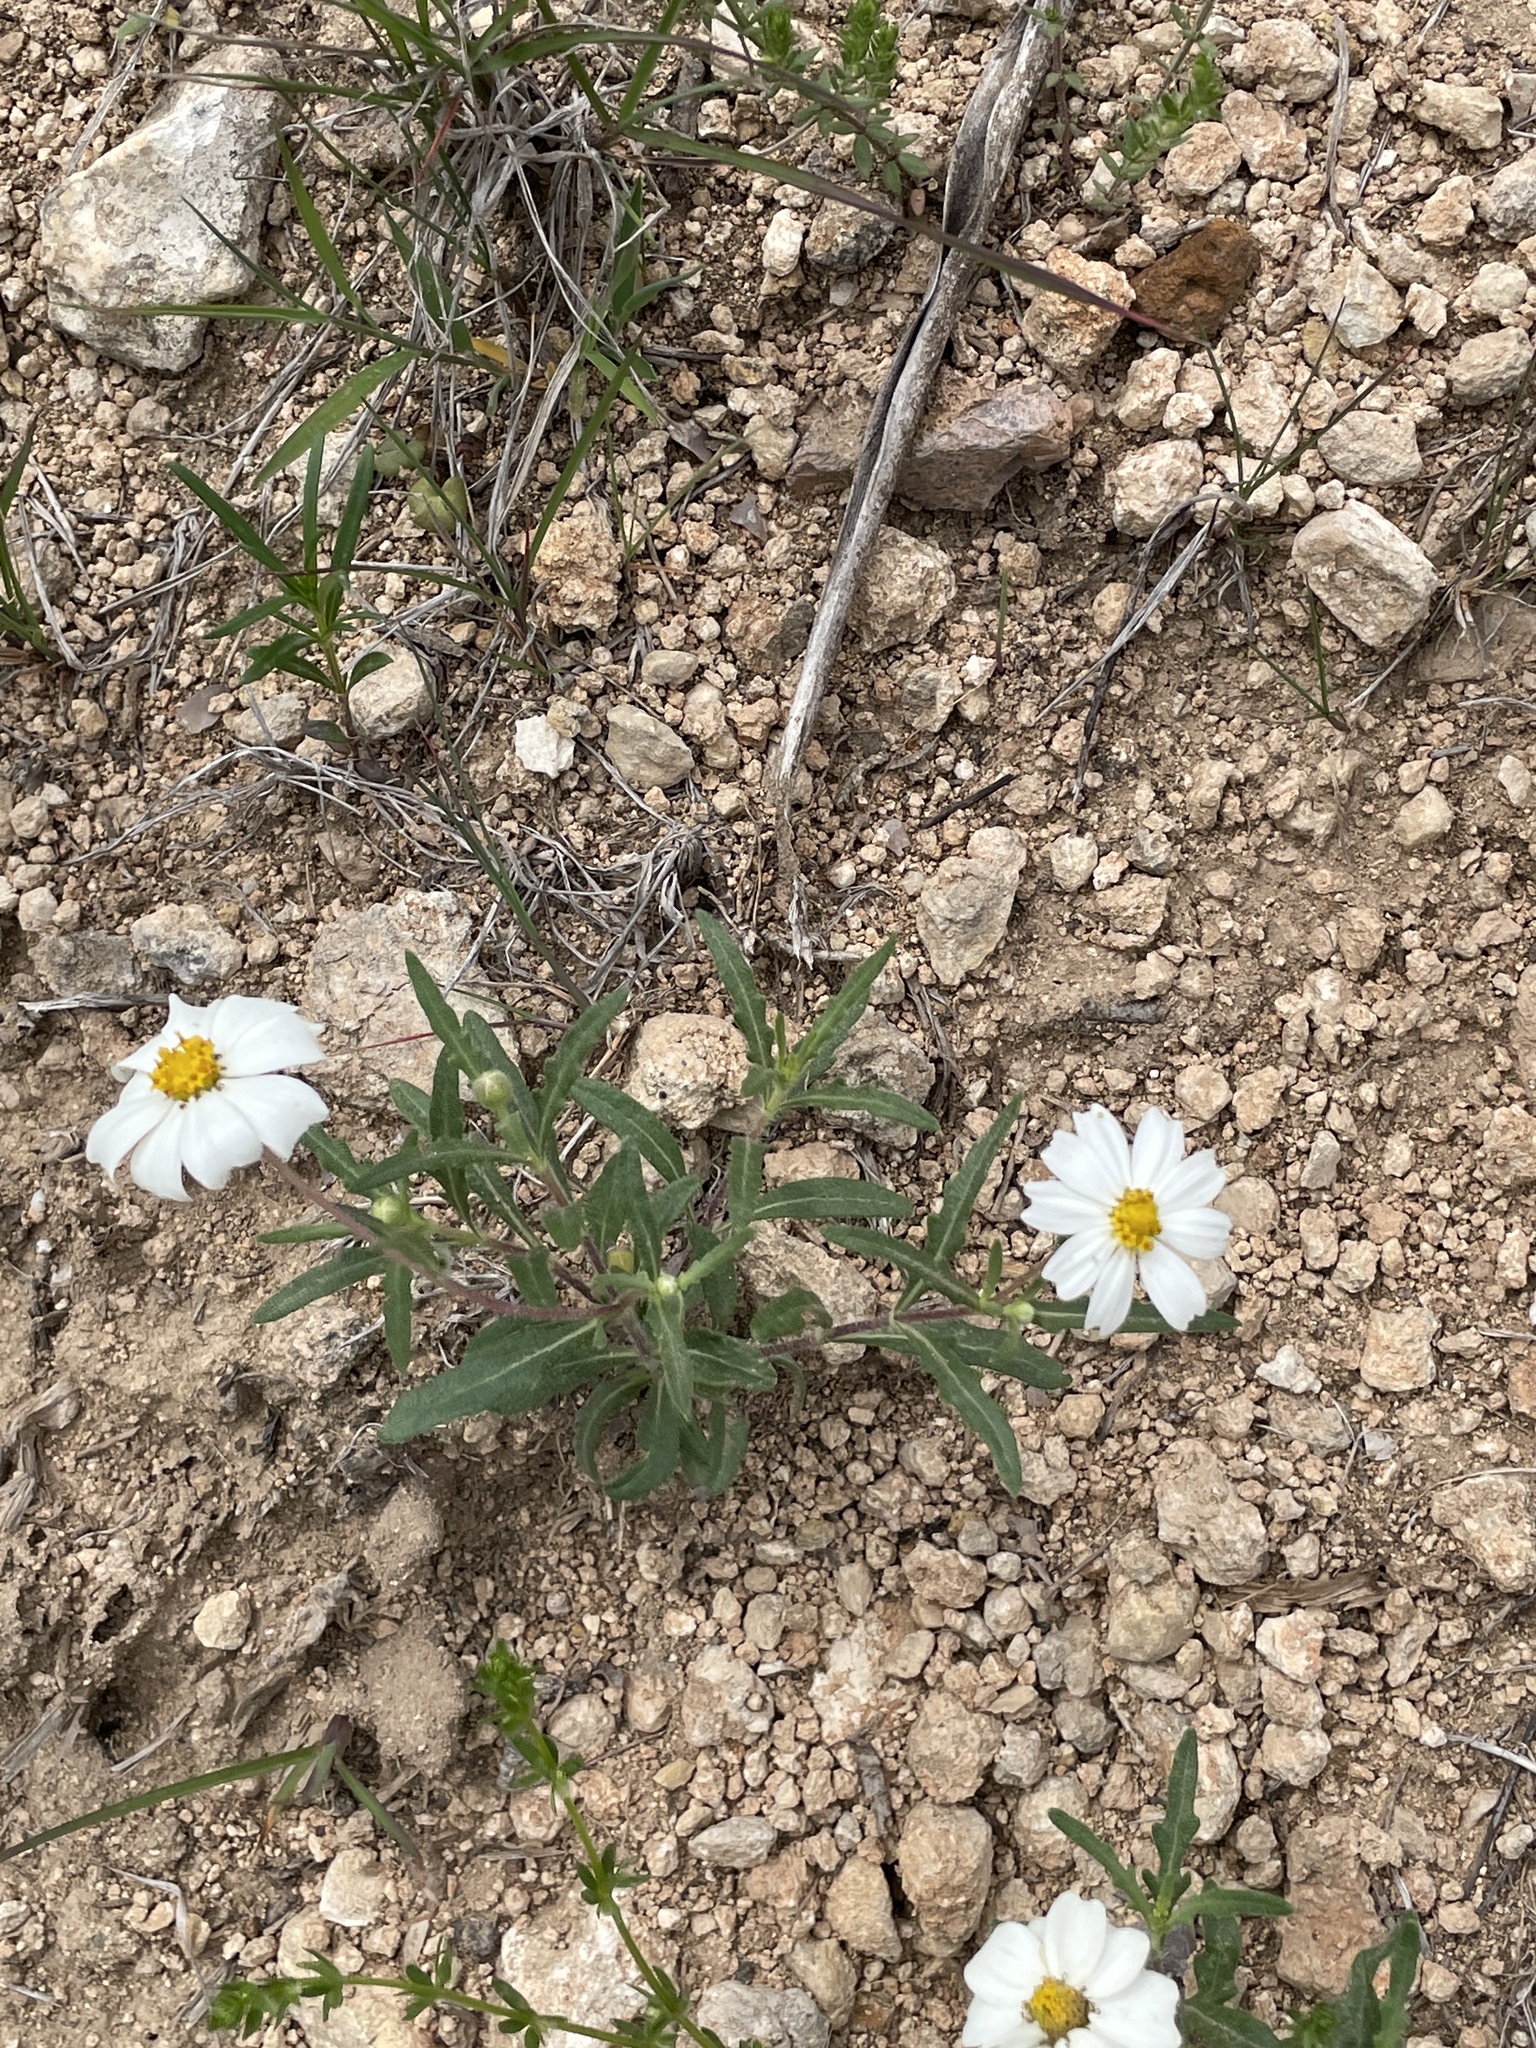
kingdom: Plantae
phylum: Tracheophyta
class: Magnoliopsida
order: Asterales
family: Asteraceae
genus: Melampodium
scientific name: Melampodium leucanthum
